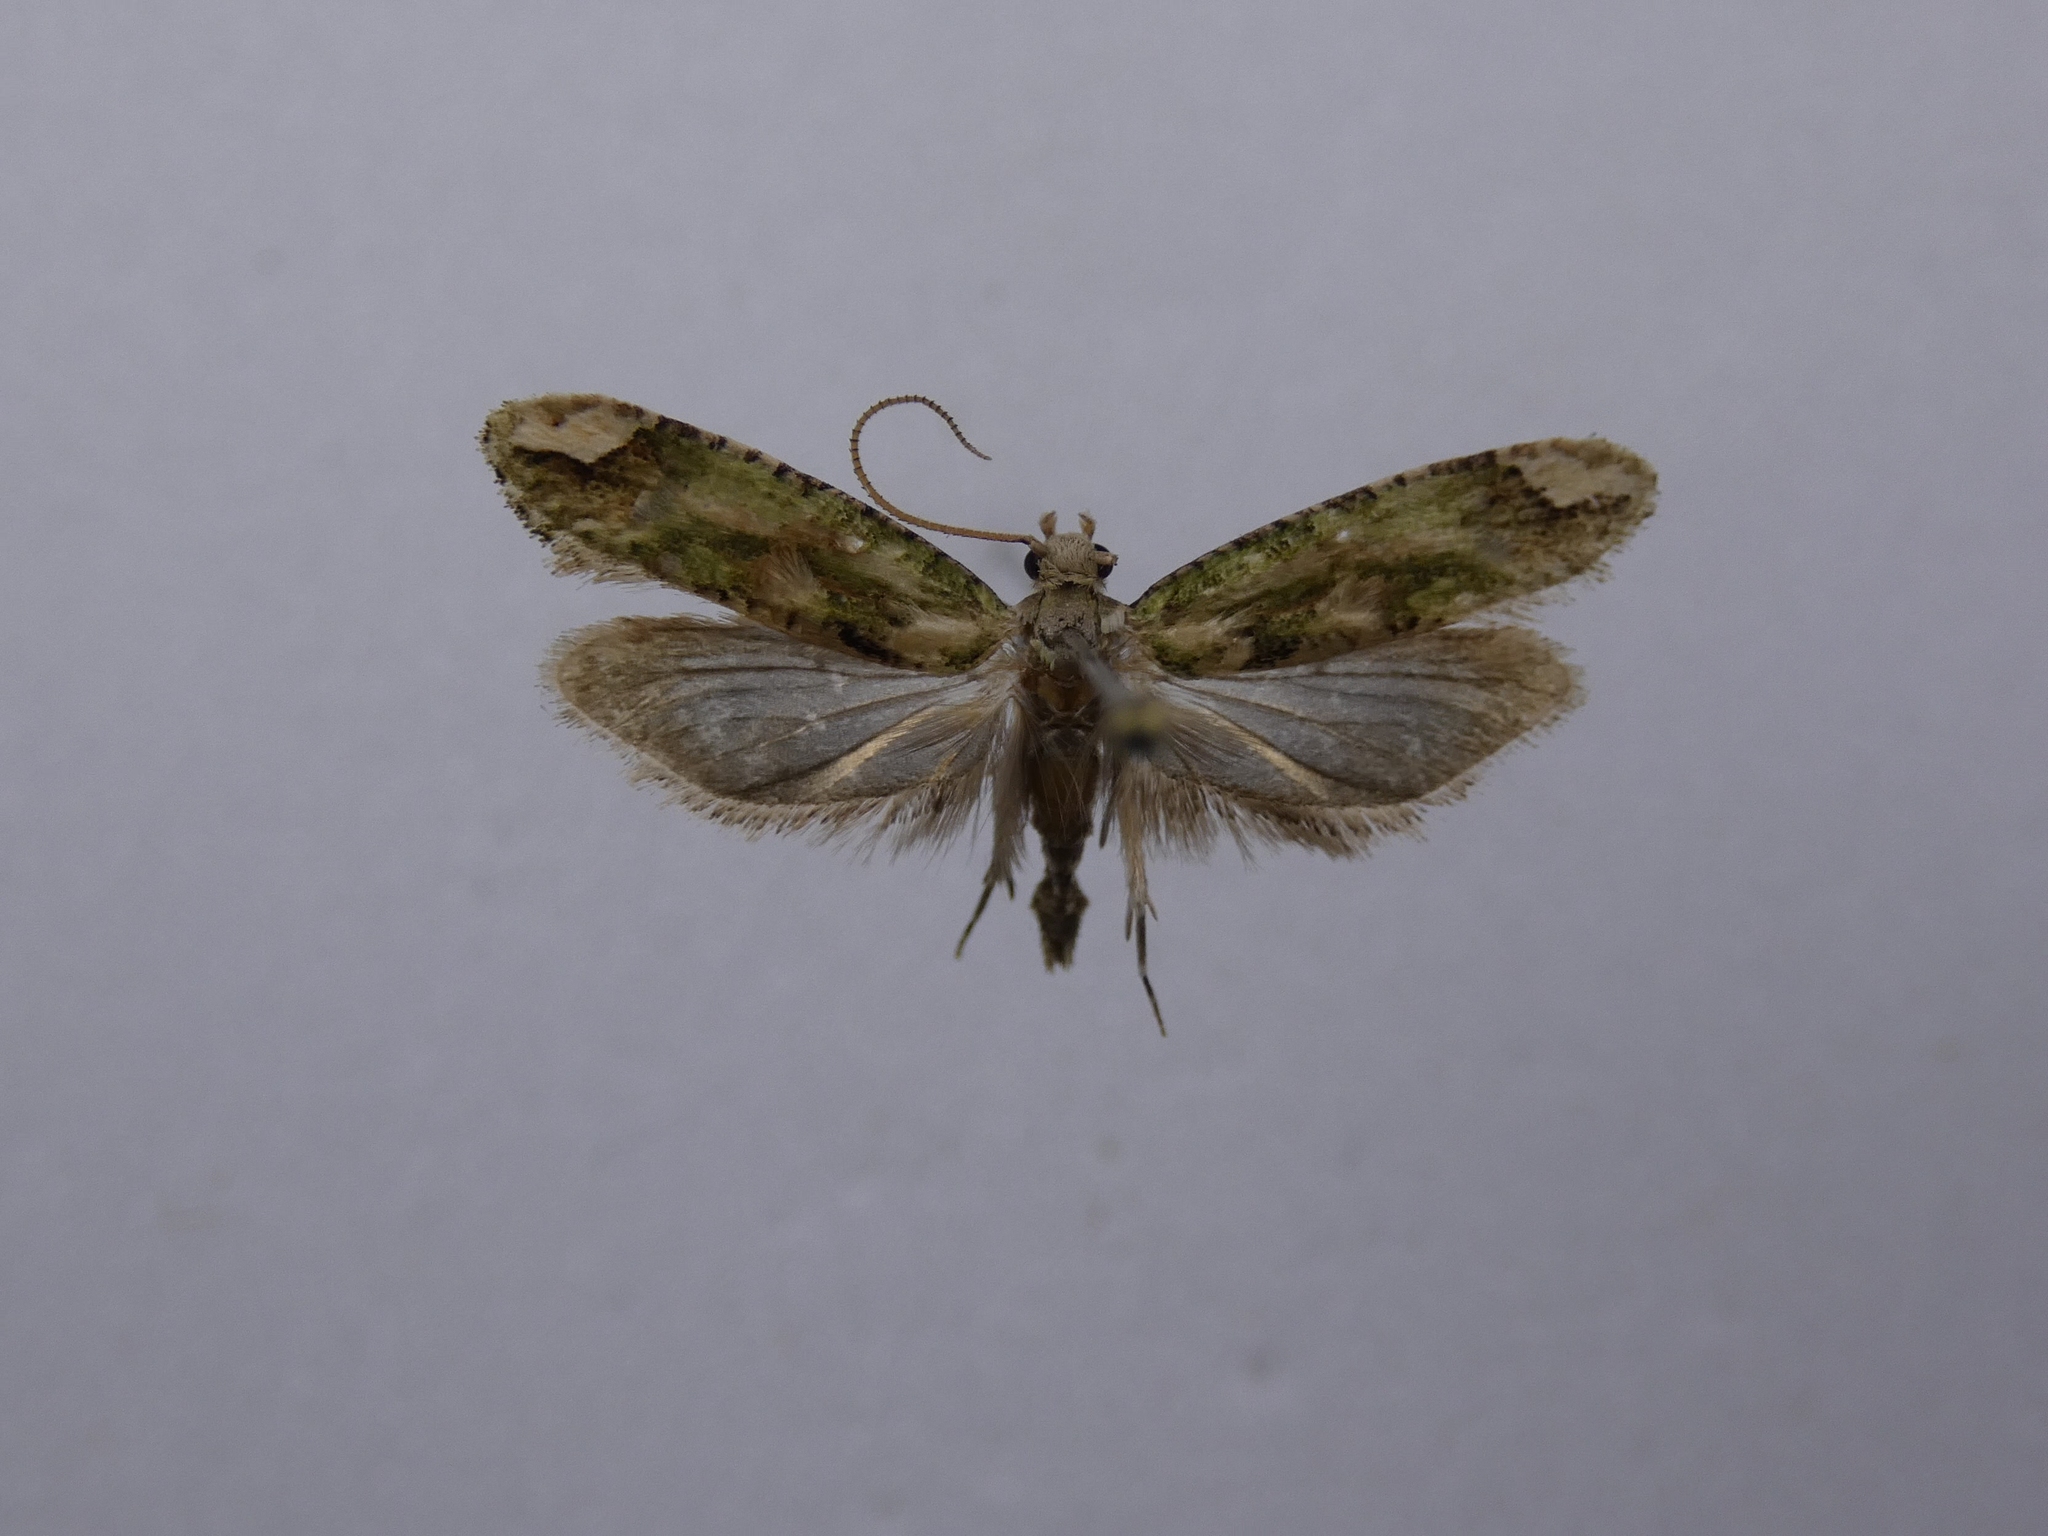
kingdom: Animalia
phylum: Arthropoda
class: Insecta
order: Lepidoptera
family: Tineidae
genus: Lysiphragma
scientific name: Lysiphragma mixochlora
